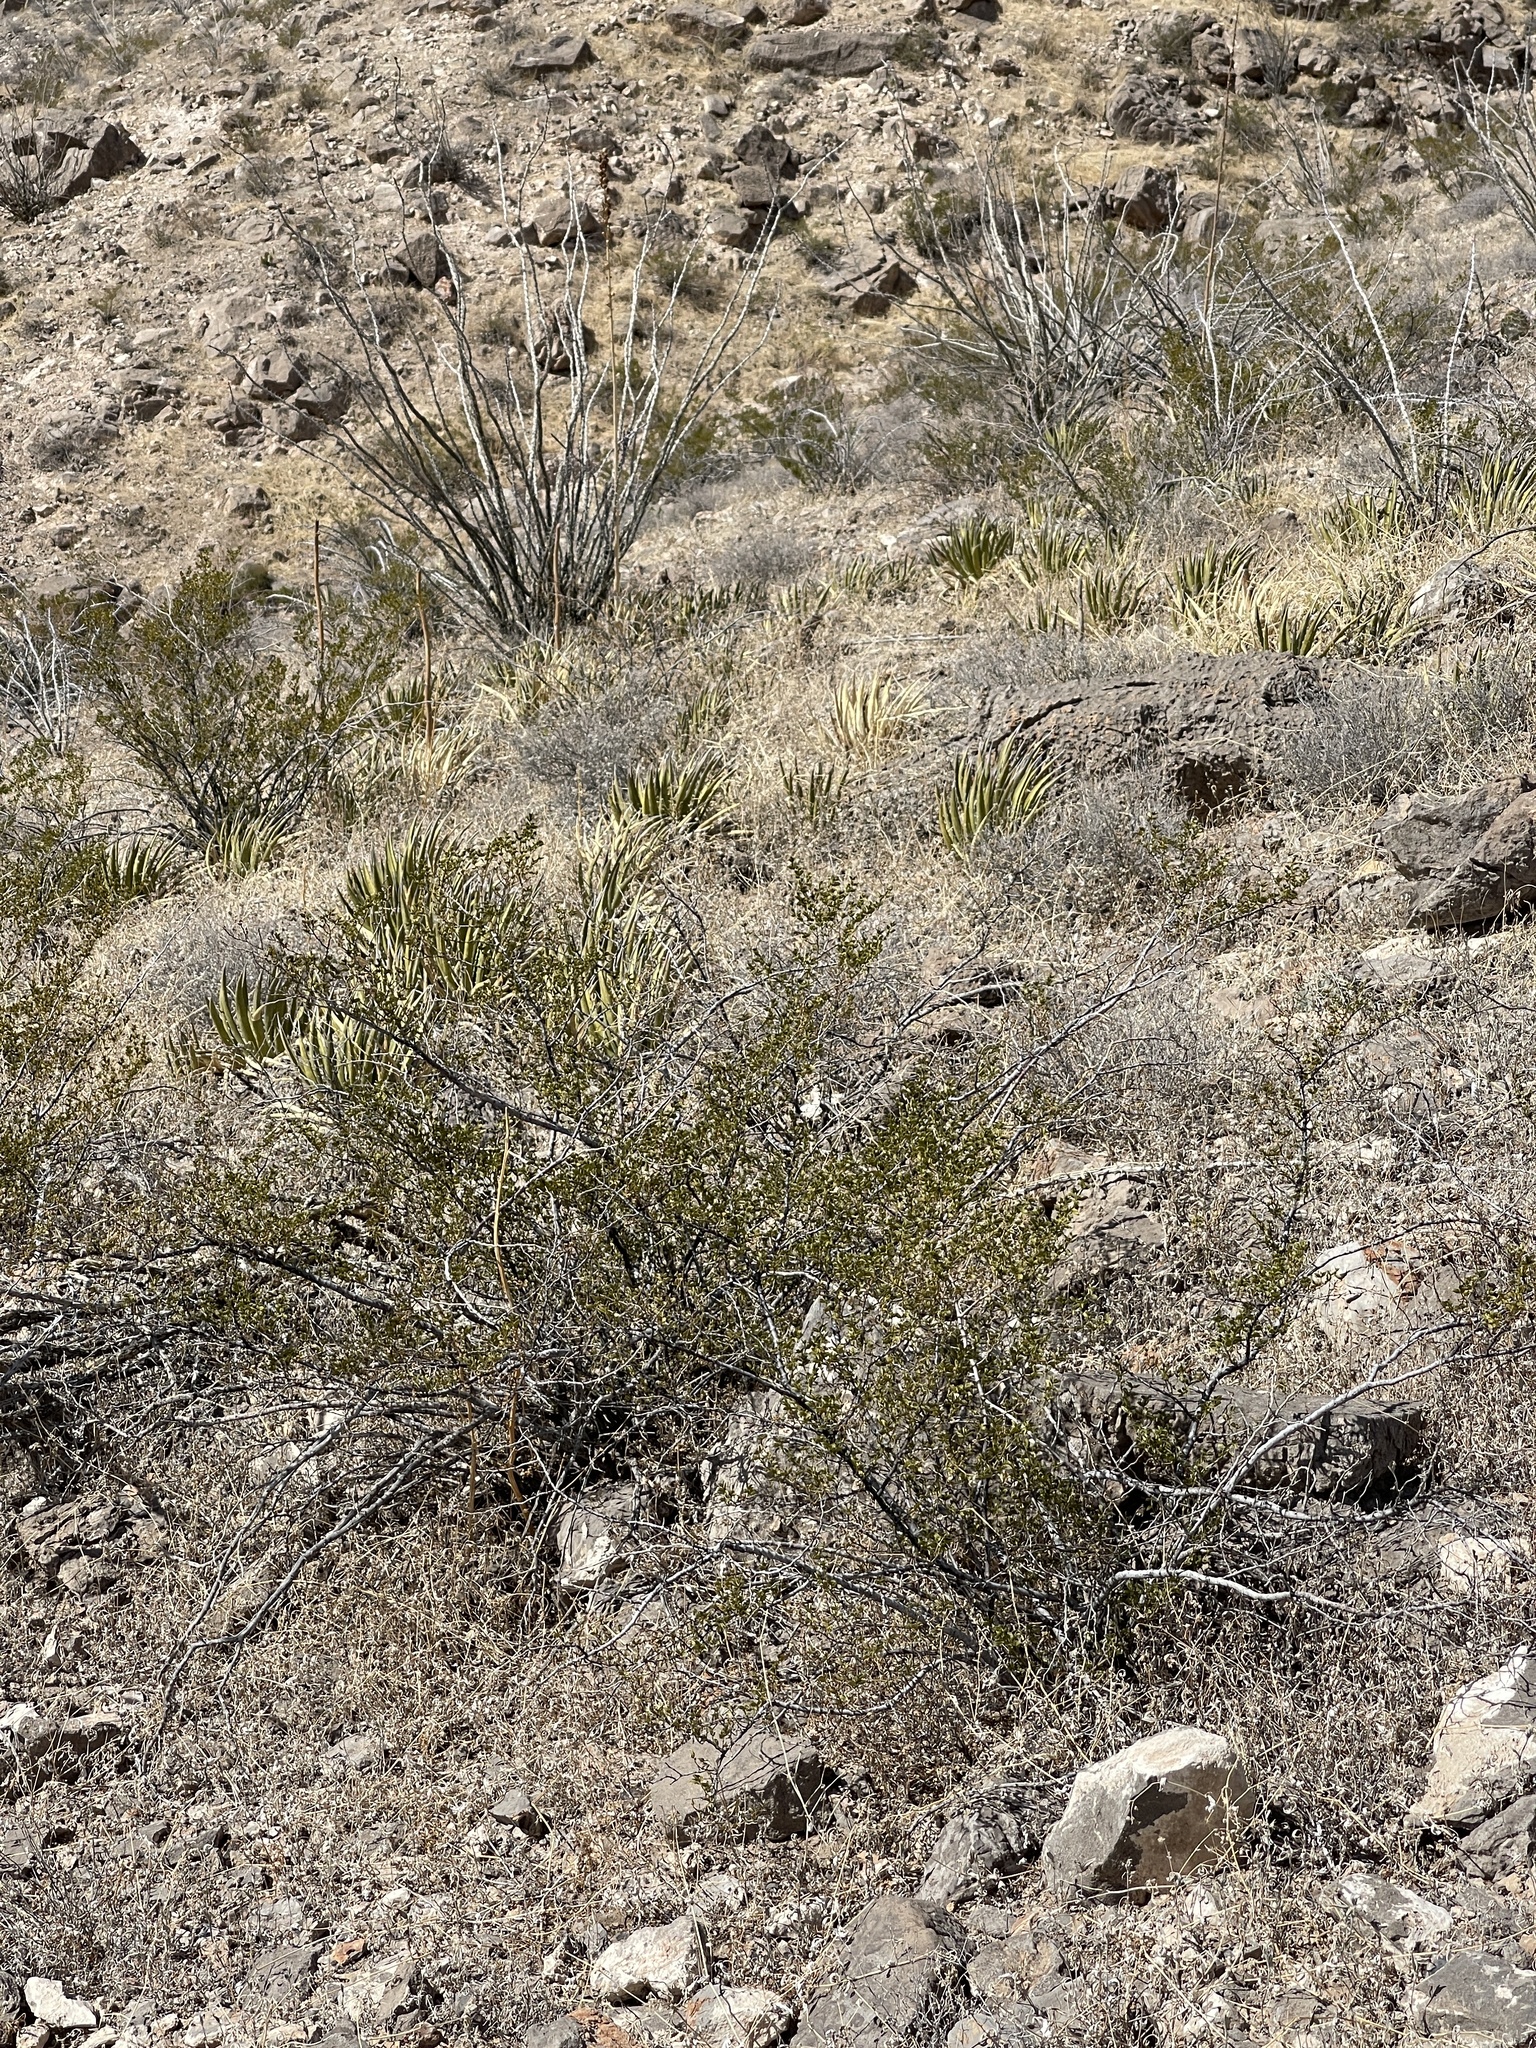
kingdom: Plantae
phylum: Tracheophyta
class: Magnoliopsida
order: Zygophyllales
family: Zygophyllaceae
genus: Larrea
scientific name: Larrea tridentata
